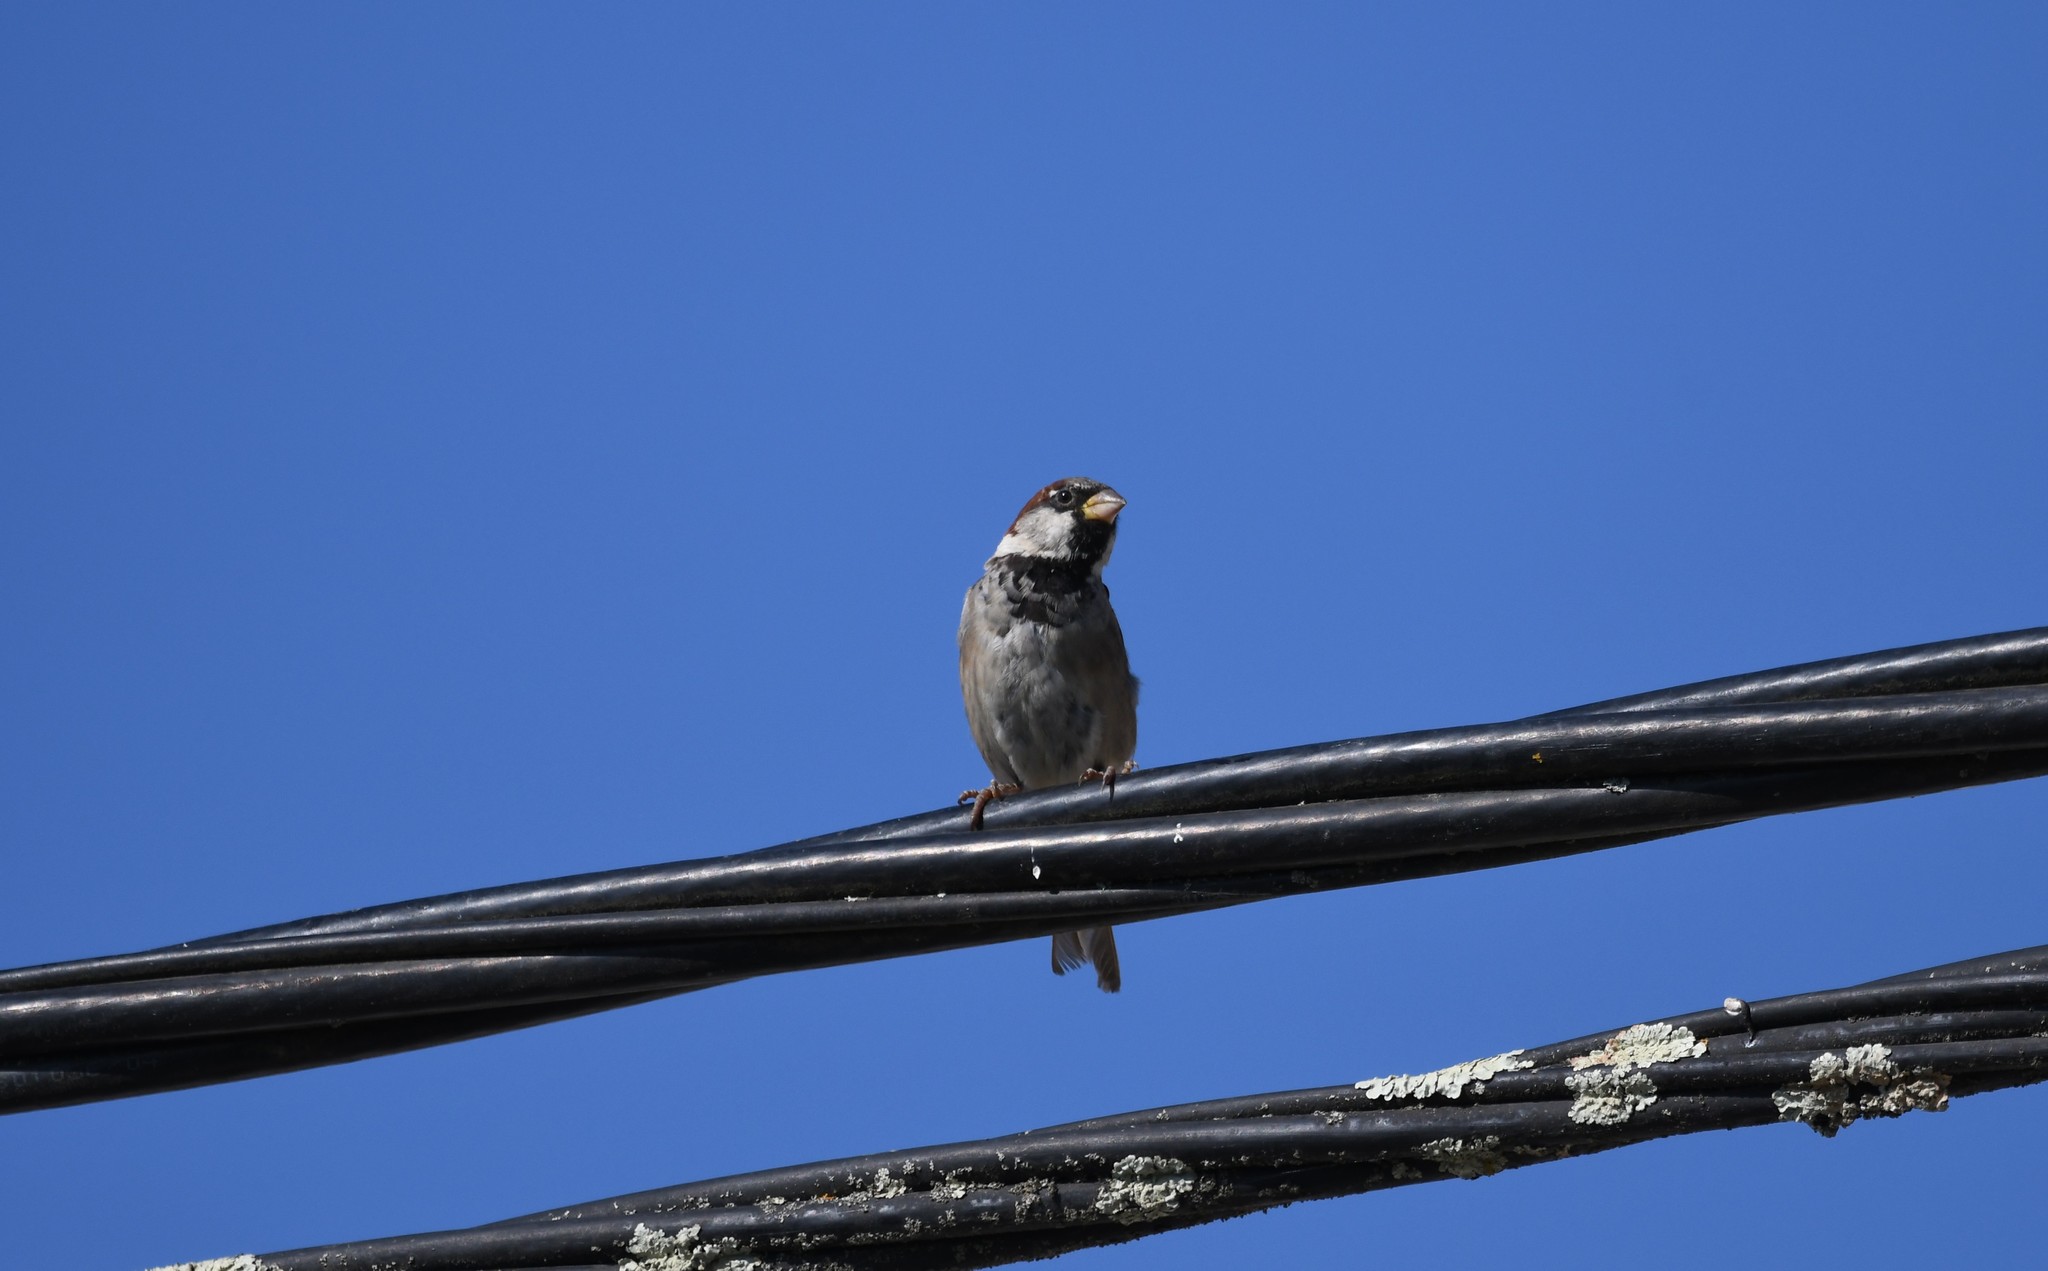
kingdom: Animalia
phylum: Chordata
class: Aves
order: Passeriformes
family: Passeridae
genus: Passer
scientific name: Passer domesticus
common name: House sparrow
